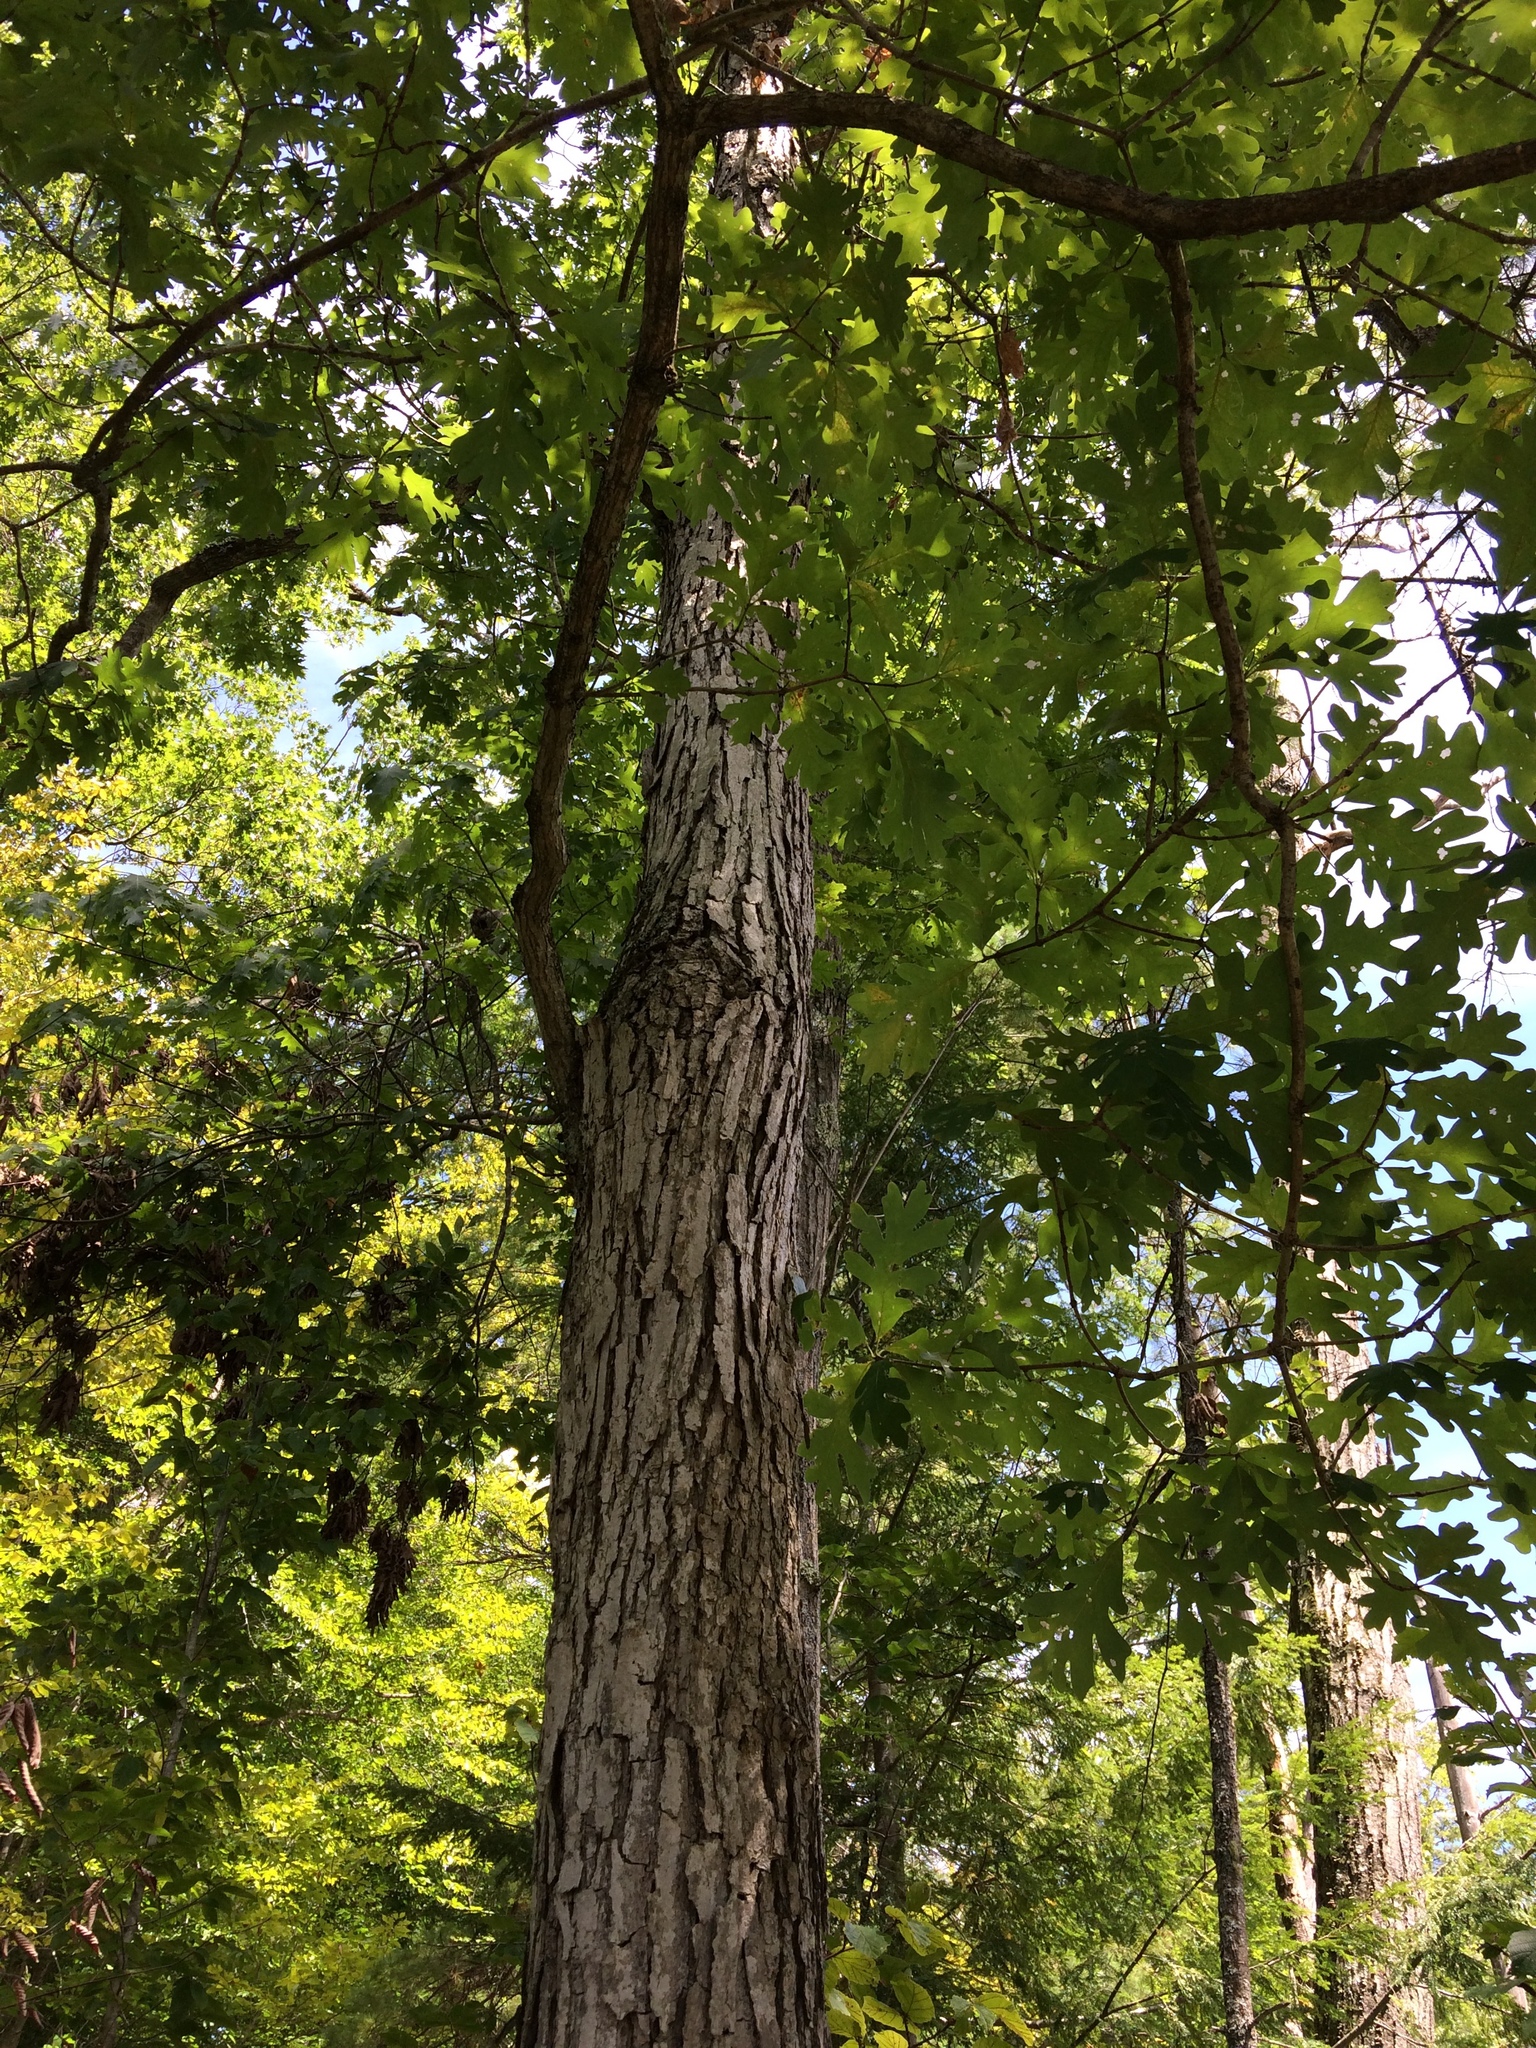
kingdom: Plantae
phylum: Tracheophyta
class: Magnoliopsida
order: Fagales
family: Fagaceae
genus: Quercus
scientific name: Quercus alba
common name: White oak
